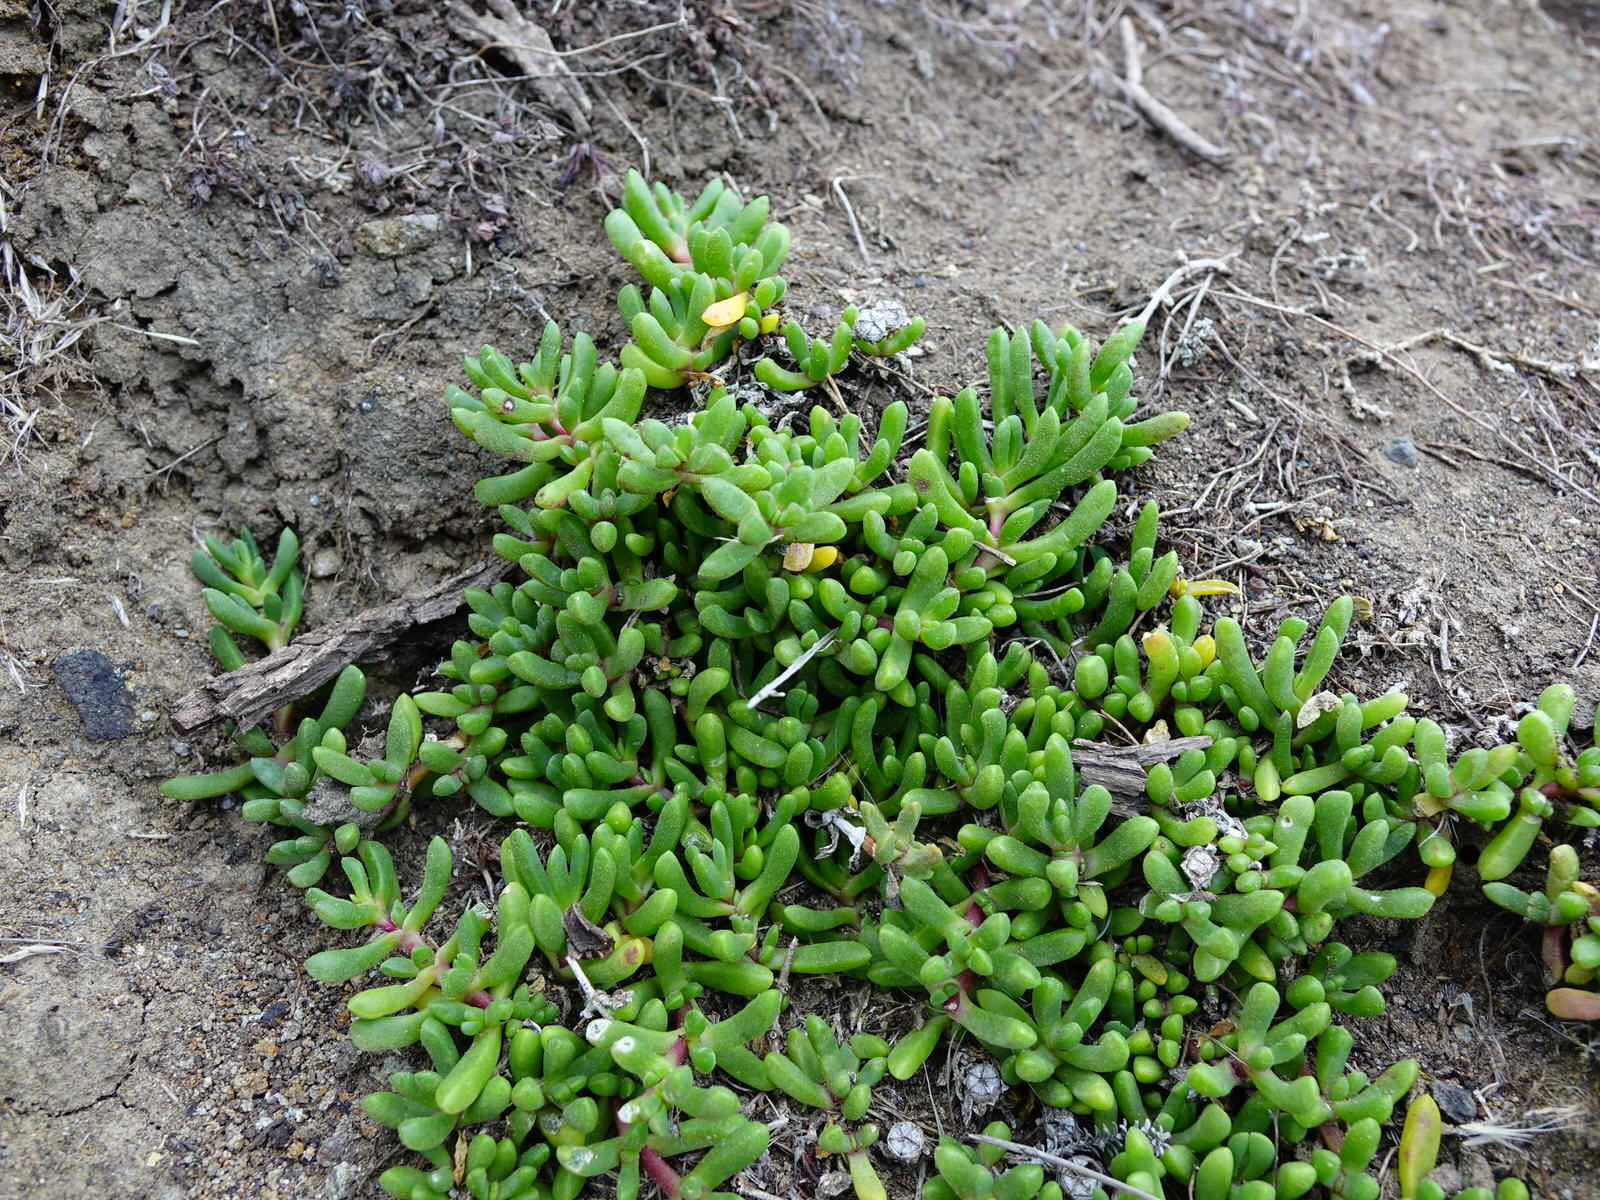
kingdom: Plantae
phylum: Tracheophyta
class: Magnoliopsida
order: Caryophyllales
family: Aizoaceae
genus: Disphyma
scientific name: Disphyma australe
